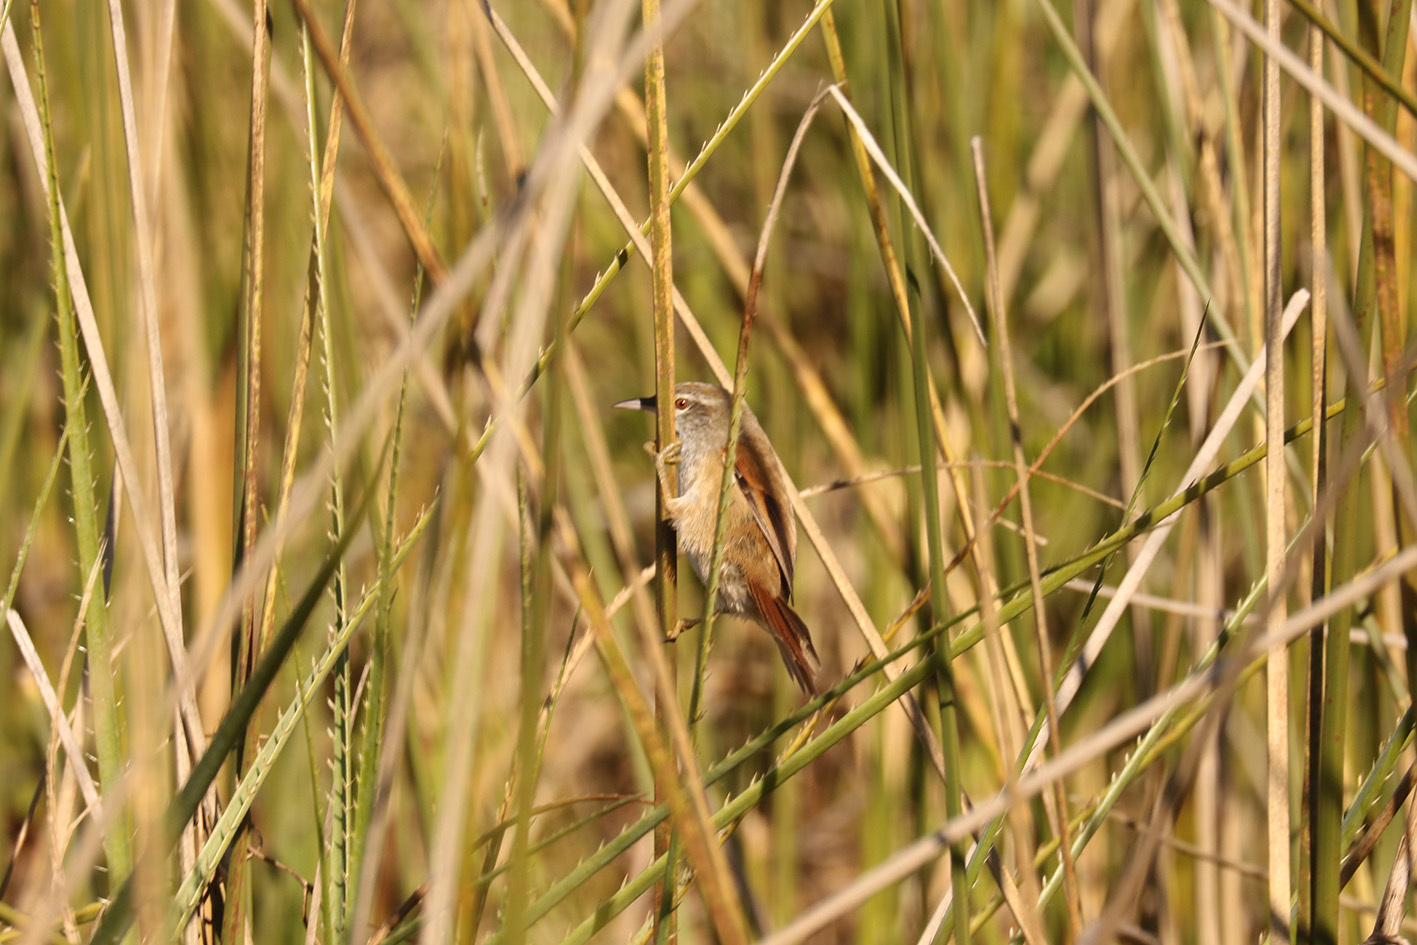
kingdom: Animalia
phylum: Chordata
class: Aves
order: Passeriformes
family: Furnariidae
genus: Cranioleuca
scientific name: Cranioleuca sulphurifera
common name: Sulphur-bearded spinetail
